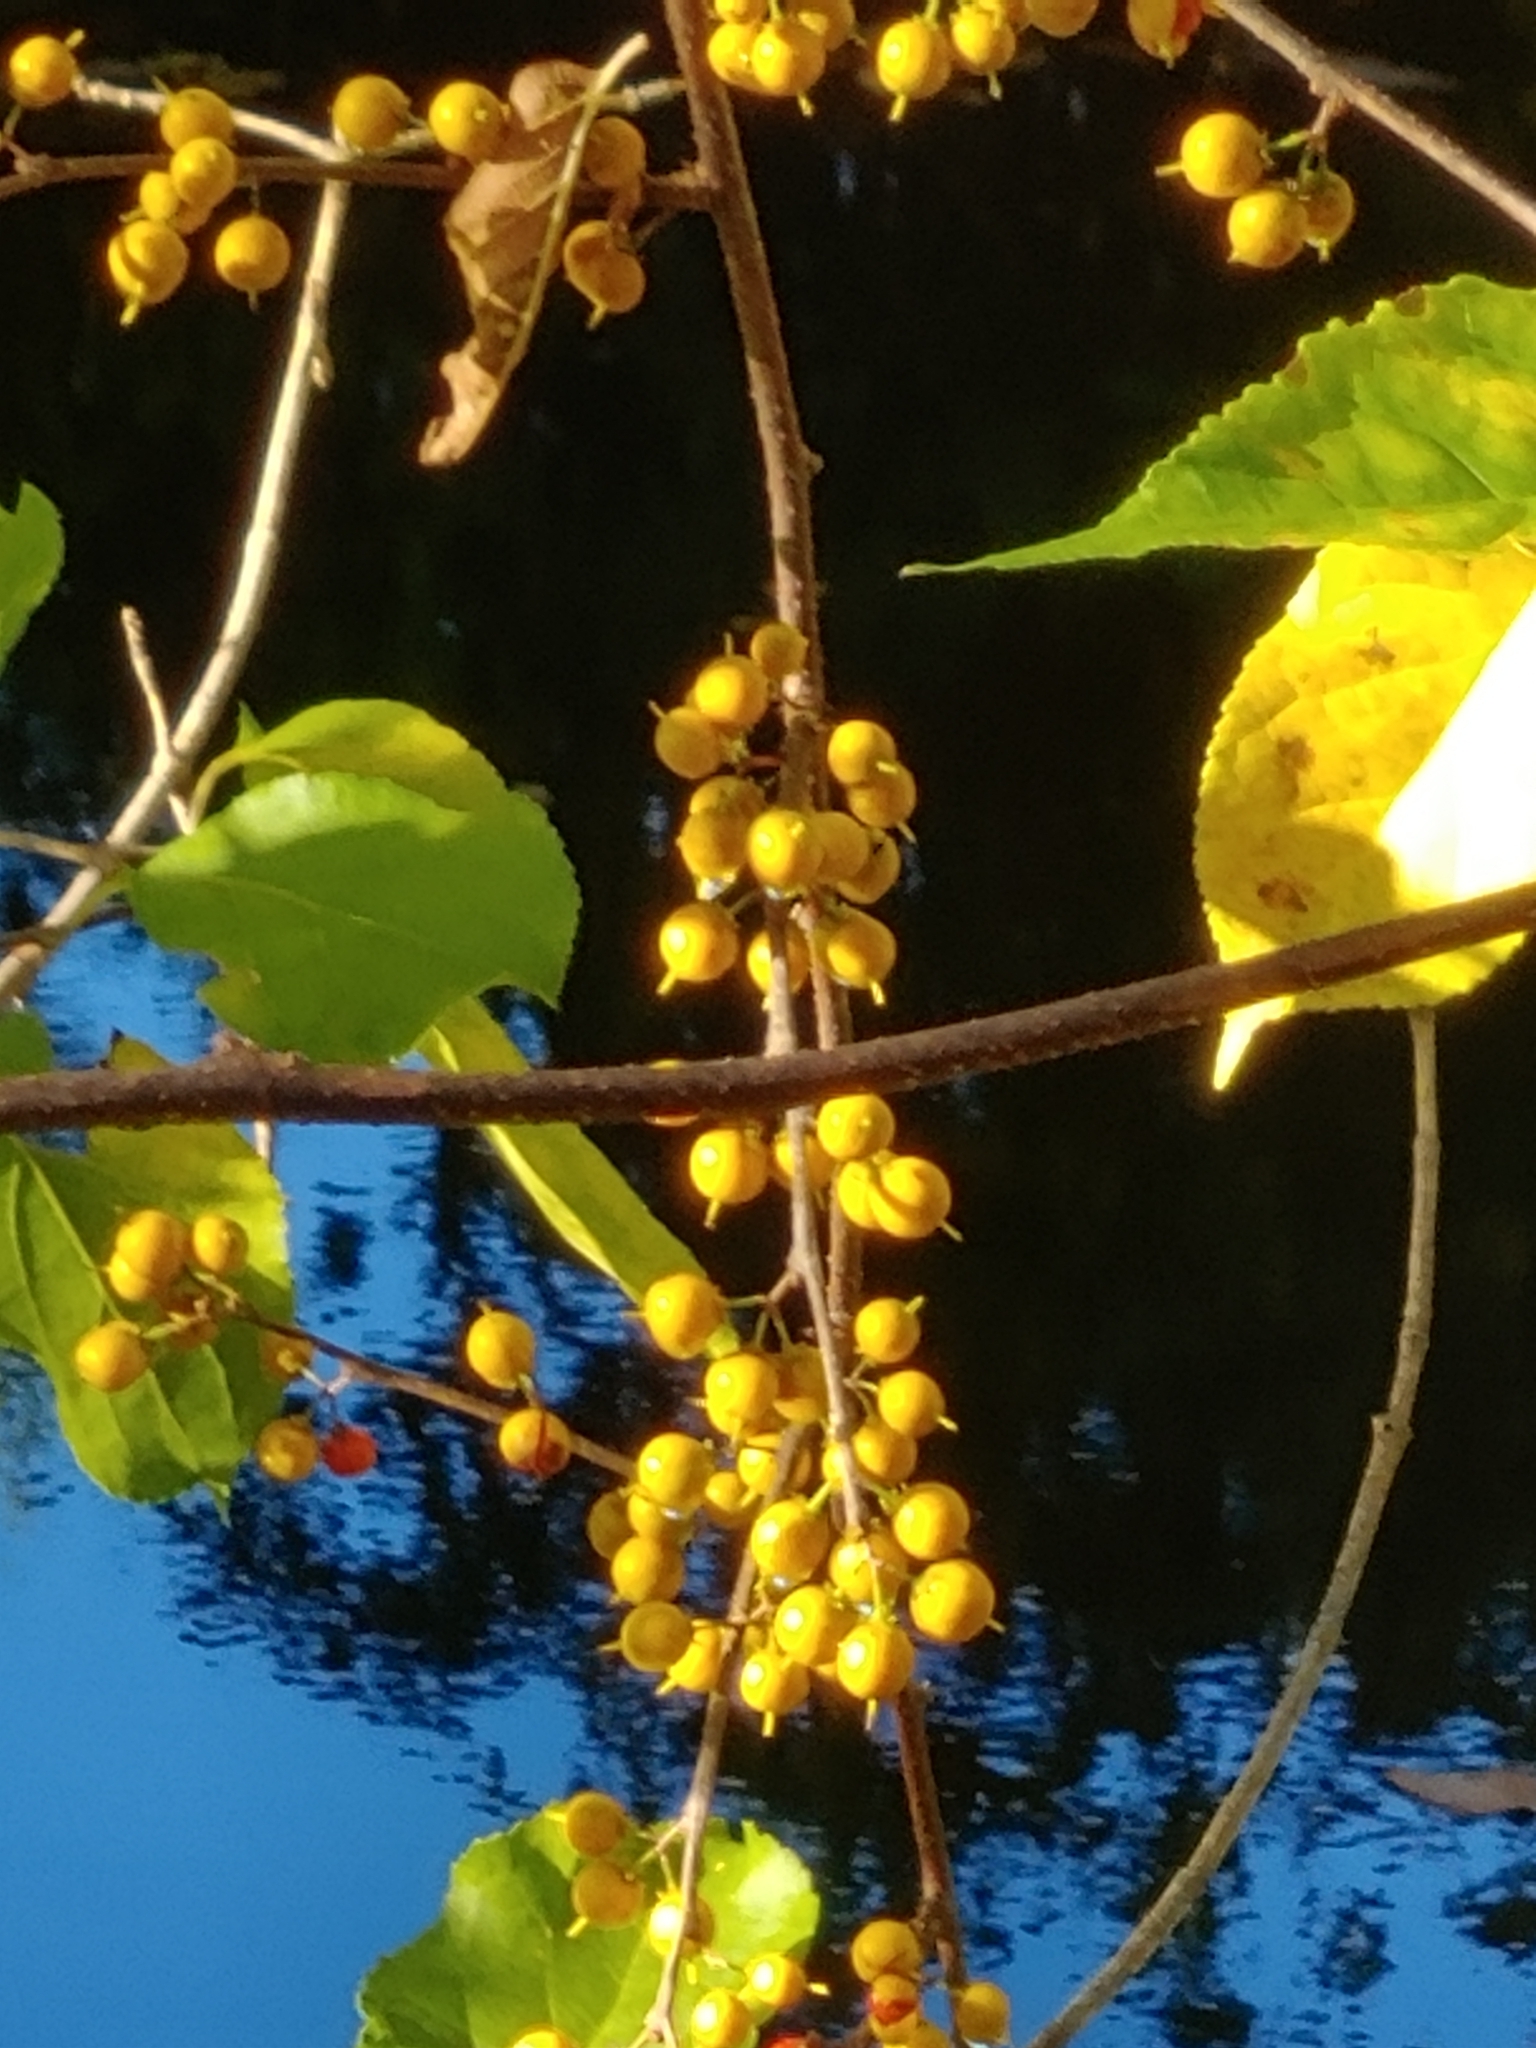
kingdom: Plantae
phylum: Tracheophyta
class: Magnoliopsida
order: Celastrales
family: Celastraceae
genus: Celastrus
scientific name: Celastrus orbiculatus
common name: Oriental bittersweet
